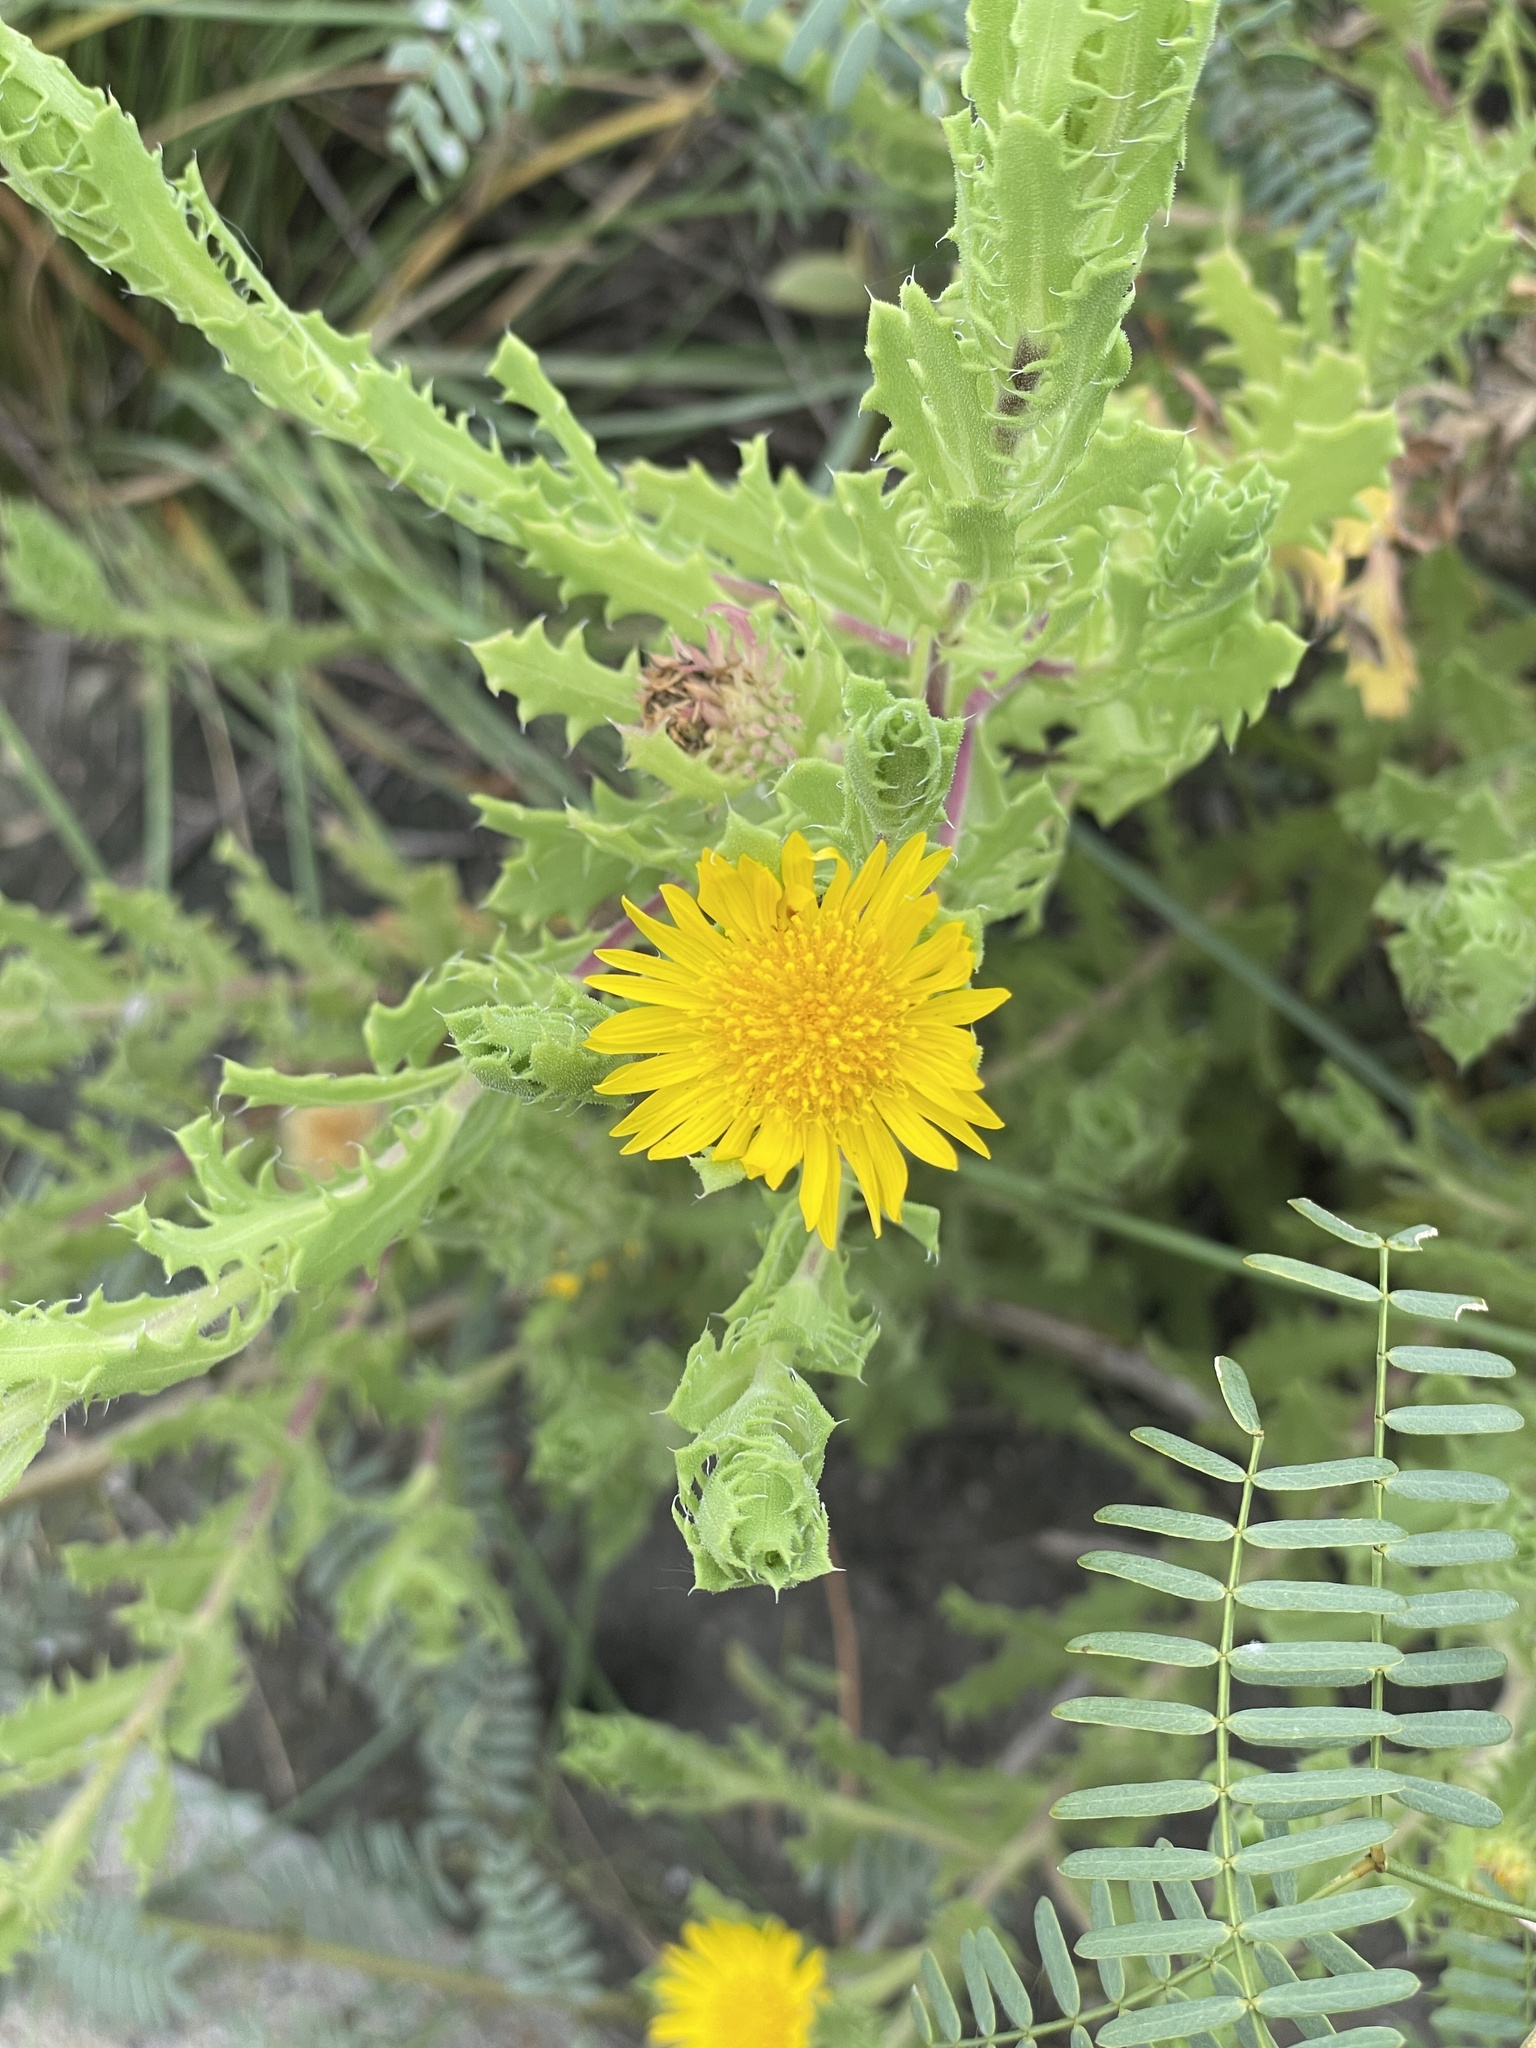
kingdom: Plantae
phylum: Tracheophyta
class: Magnoliopsida
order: Asterales
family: Asteraceae
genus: Rayjacksonia
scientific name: Rayjacksonia phyllocephala
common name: Gulf coast camphor daisy
